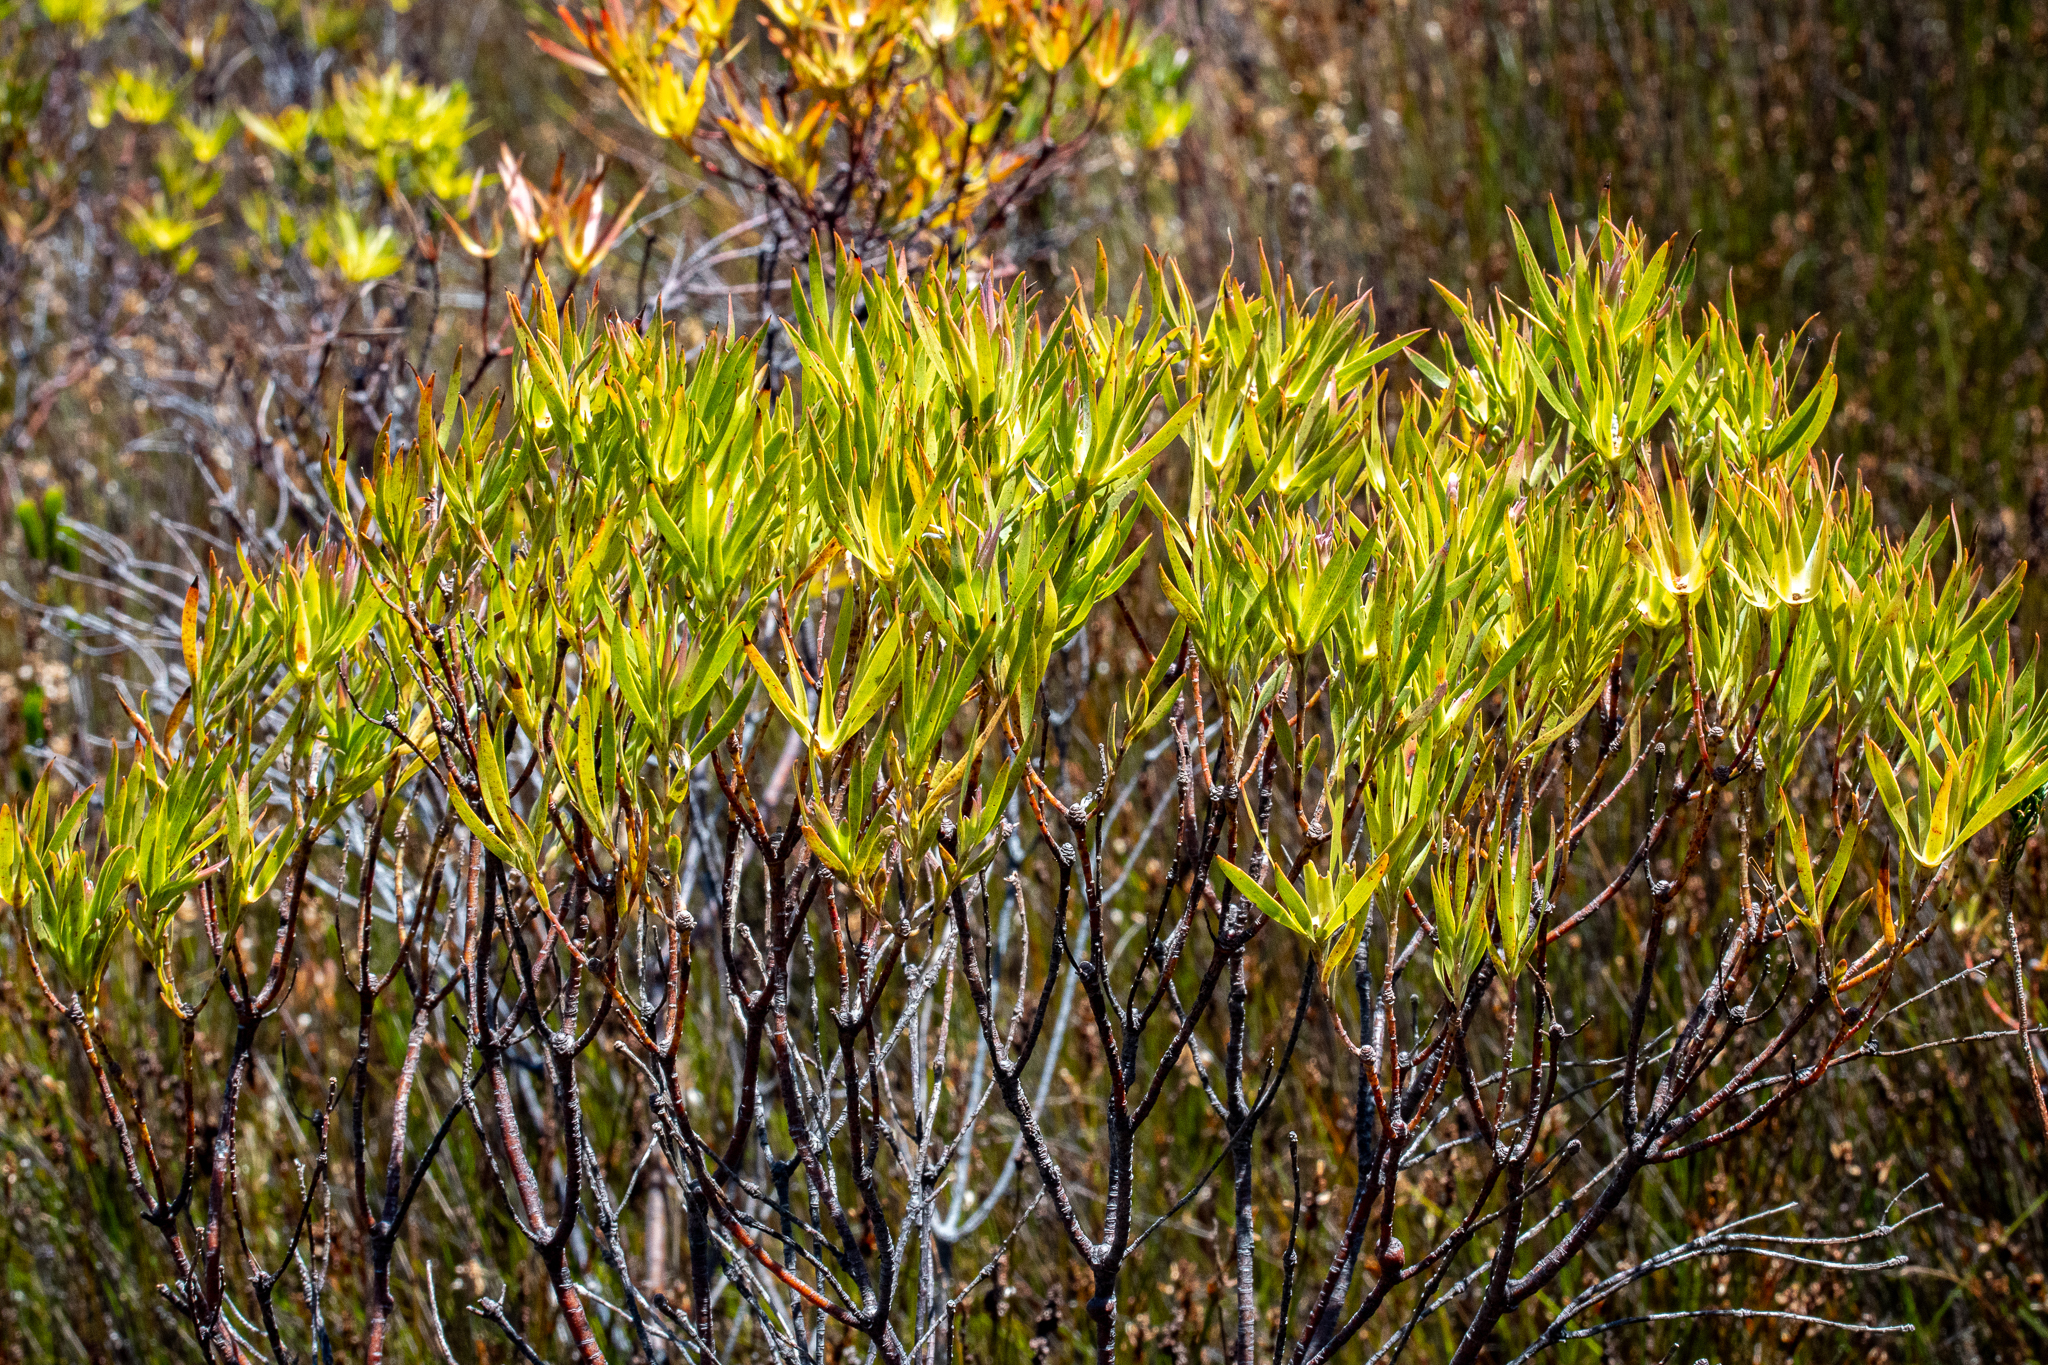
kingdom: Plantae
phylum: Tracheophyta
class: Magnoliopsida
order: Proteales
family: Proteaceae
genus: Leucadendron
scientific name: Leucadendron xanthoconus
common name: Sickle-leaf conebush
